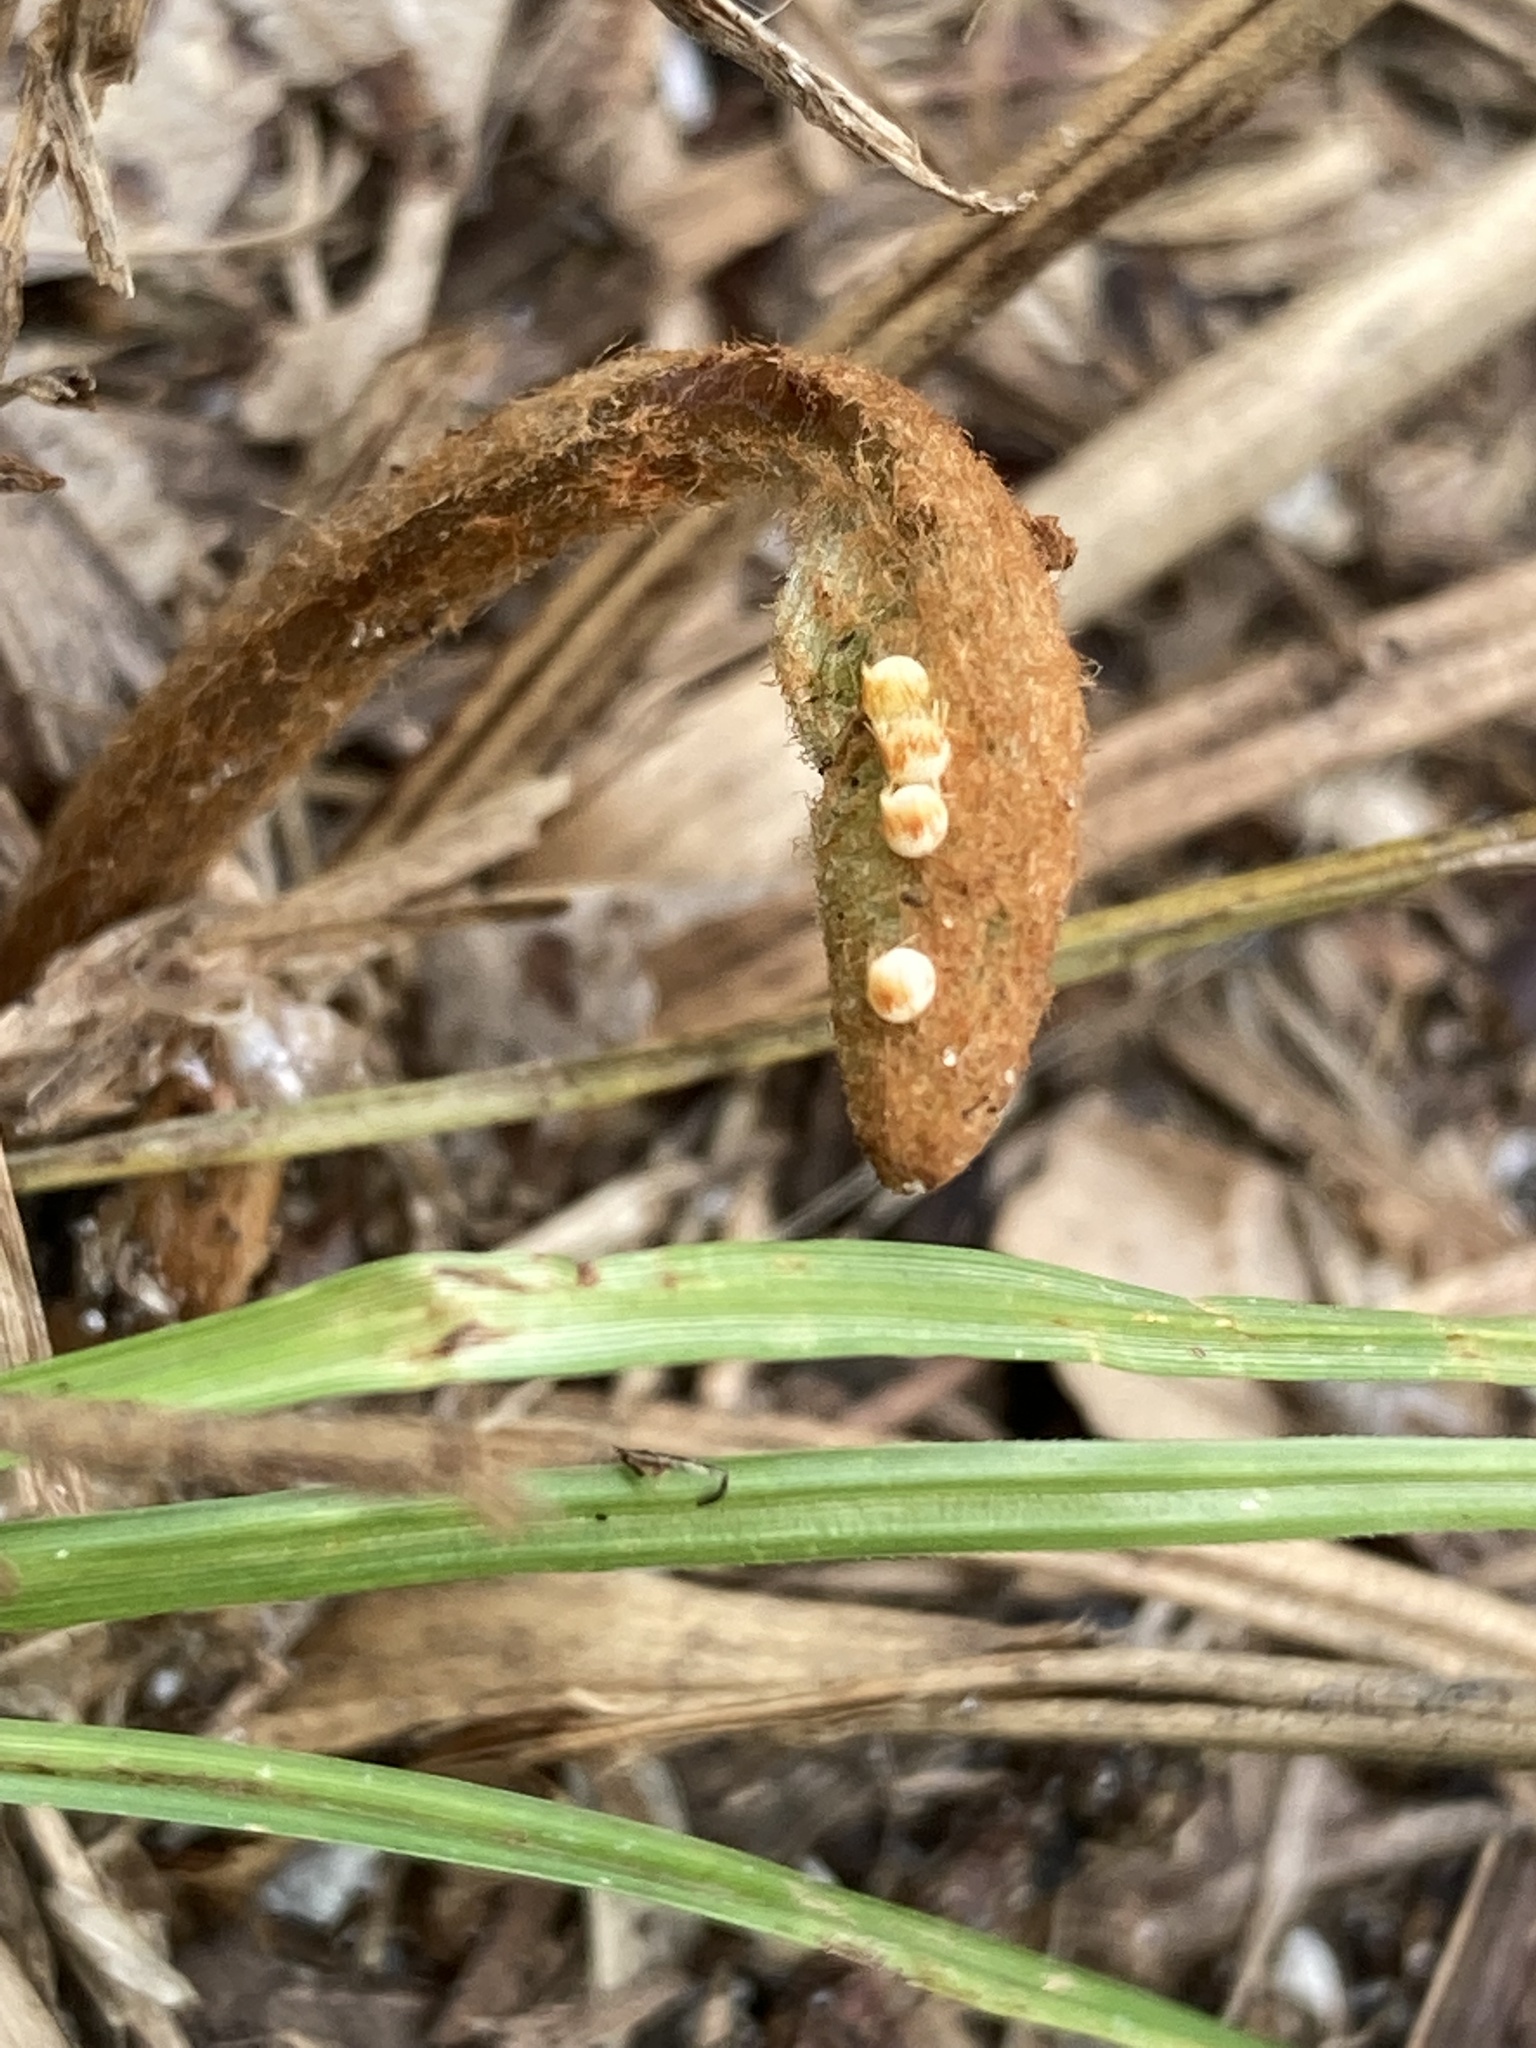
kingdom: Animalia
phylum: Arthropoda
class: Insecta
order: Lepidoptera
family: Lycaenidae
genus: Eumaeus
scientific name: Eumaeus atala
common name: Atala
